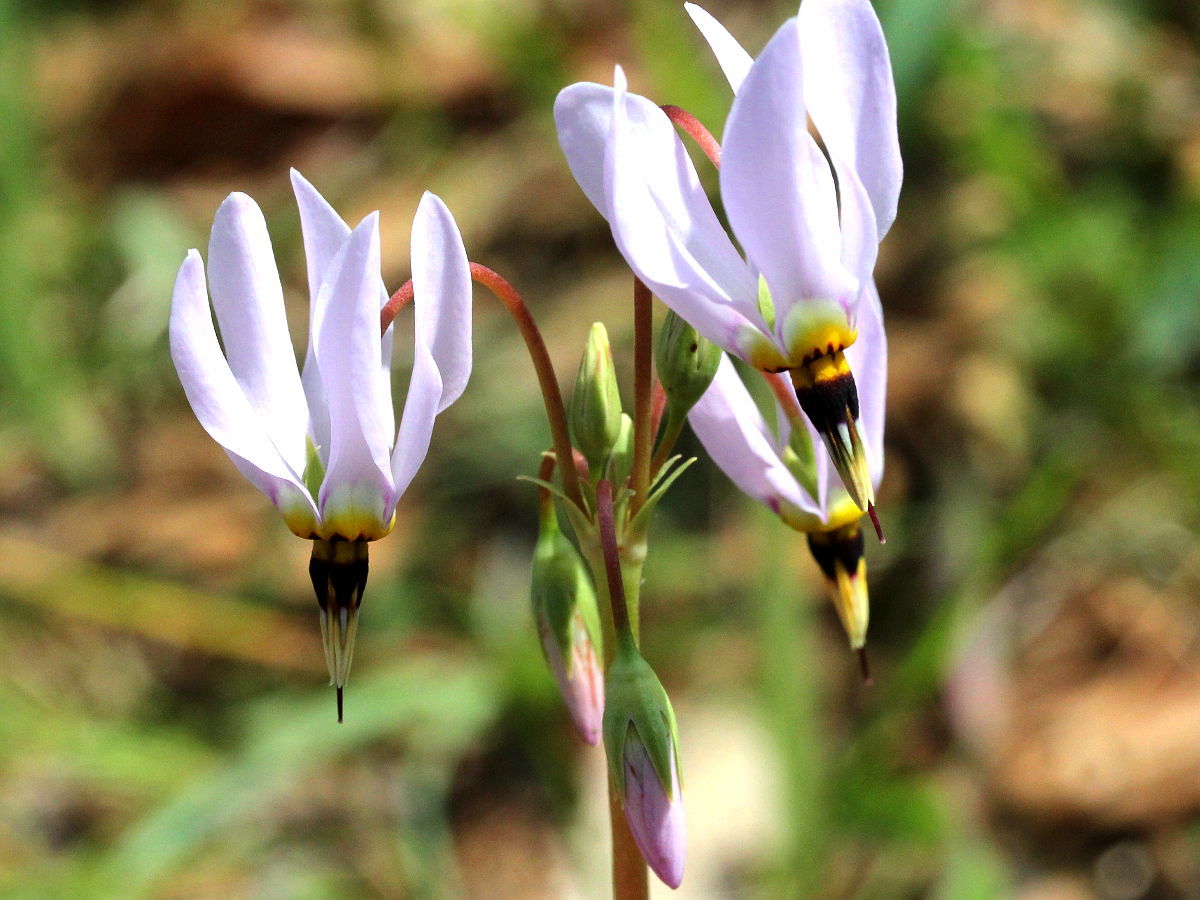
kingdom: Plantae
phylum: Tracheophyta
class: Magnoliopsida
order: Ericales
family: Primulaceae
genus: Dodecatheon
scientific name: Dodecatheon meadia
